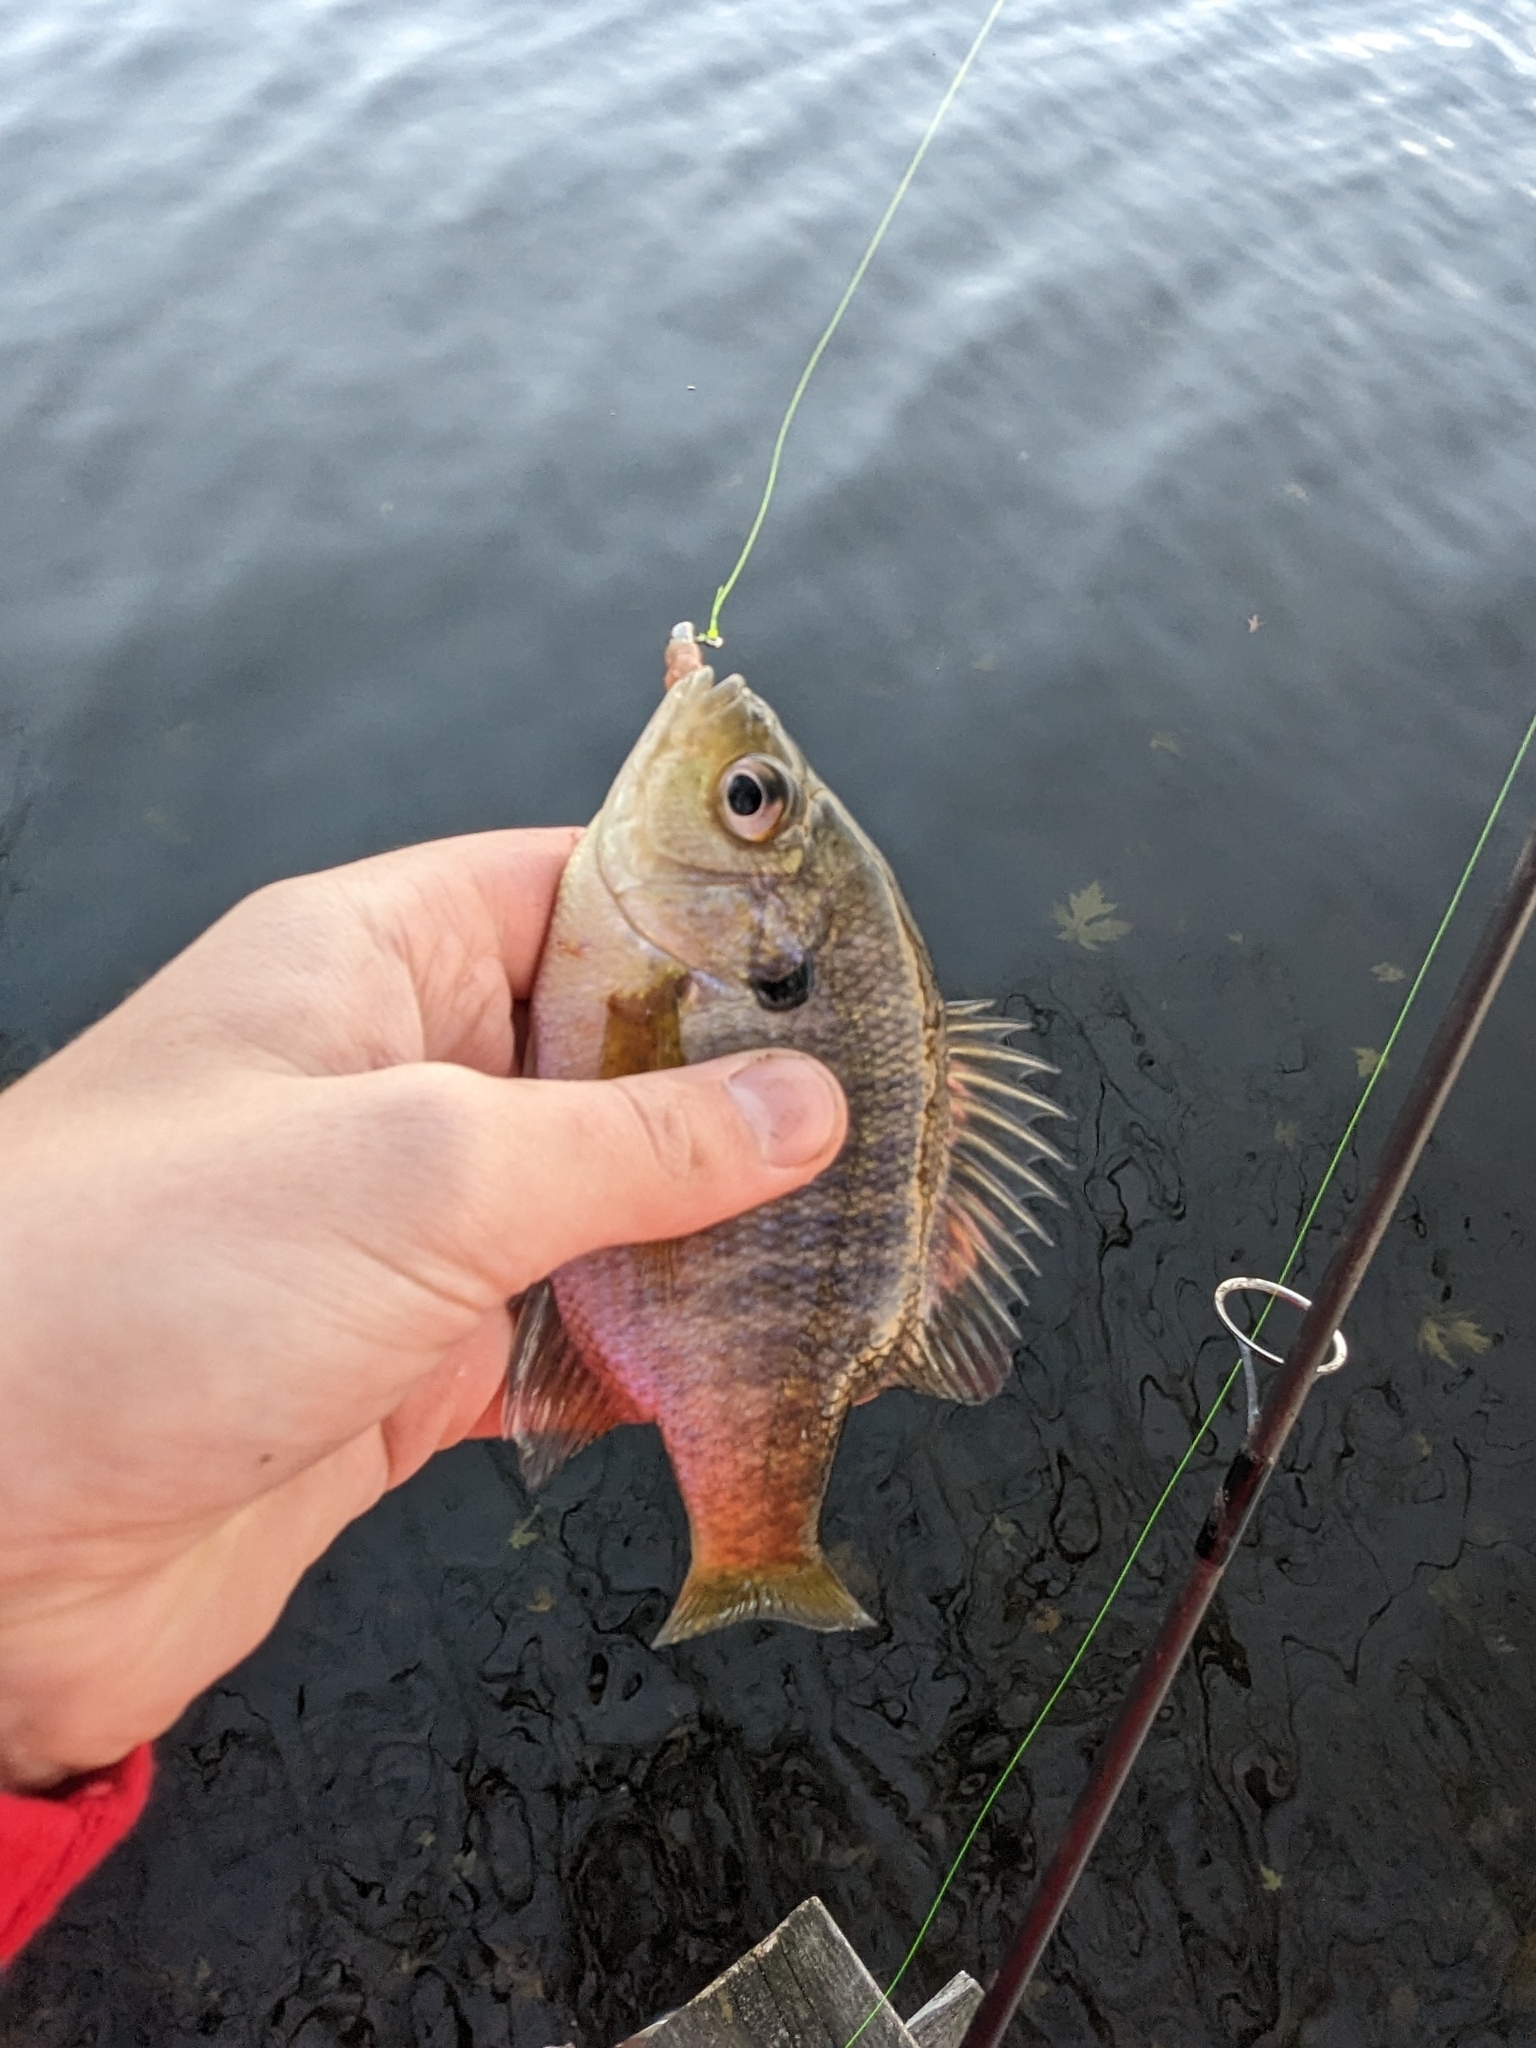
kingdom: Animalia
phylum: Chordata
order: Perciformes
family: Centrarchidae
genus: Lepomis
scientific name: Lepomis macrochirus
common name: Bluegill
